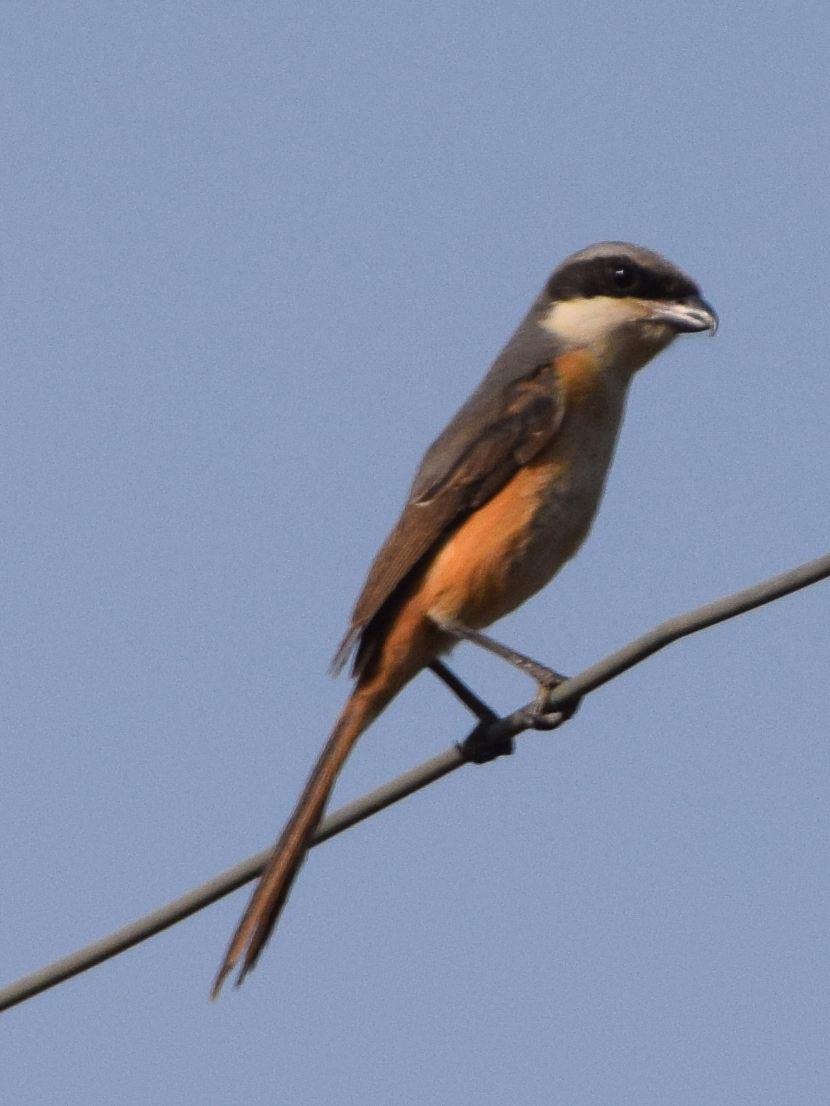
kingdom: Animalia
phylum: Chordata
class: Aves
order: Passeriformes
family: Laniidae
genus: Lanius
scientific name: Lanius tephronotus
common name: Grey-backed shrike
